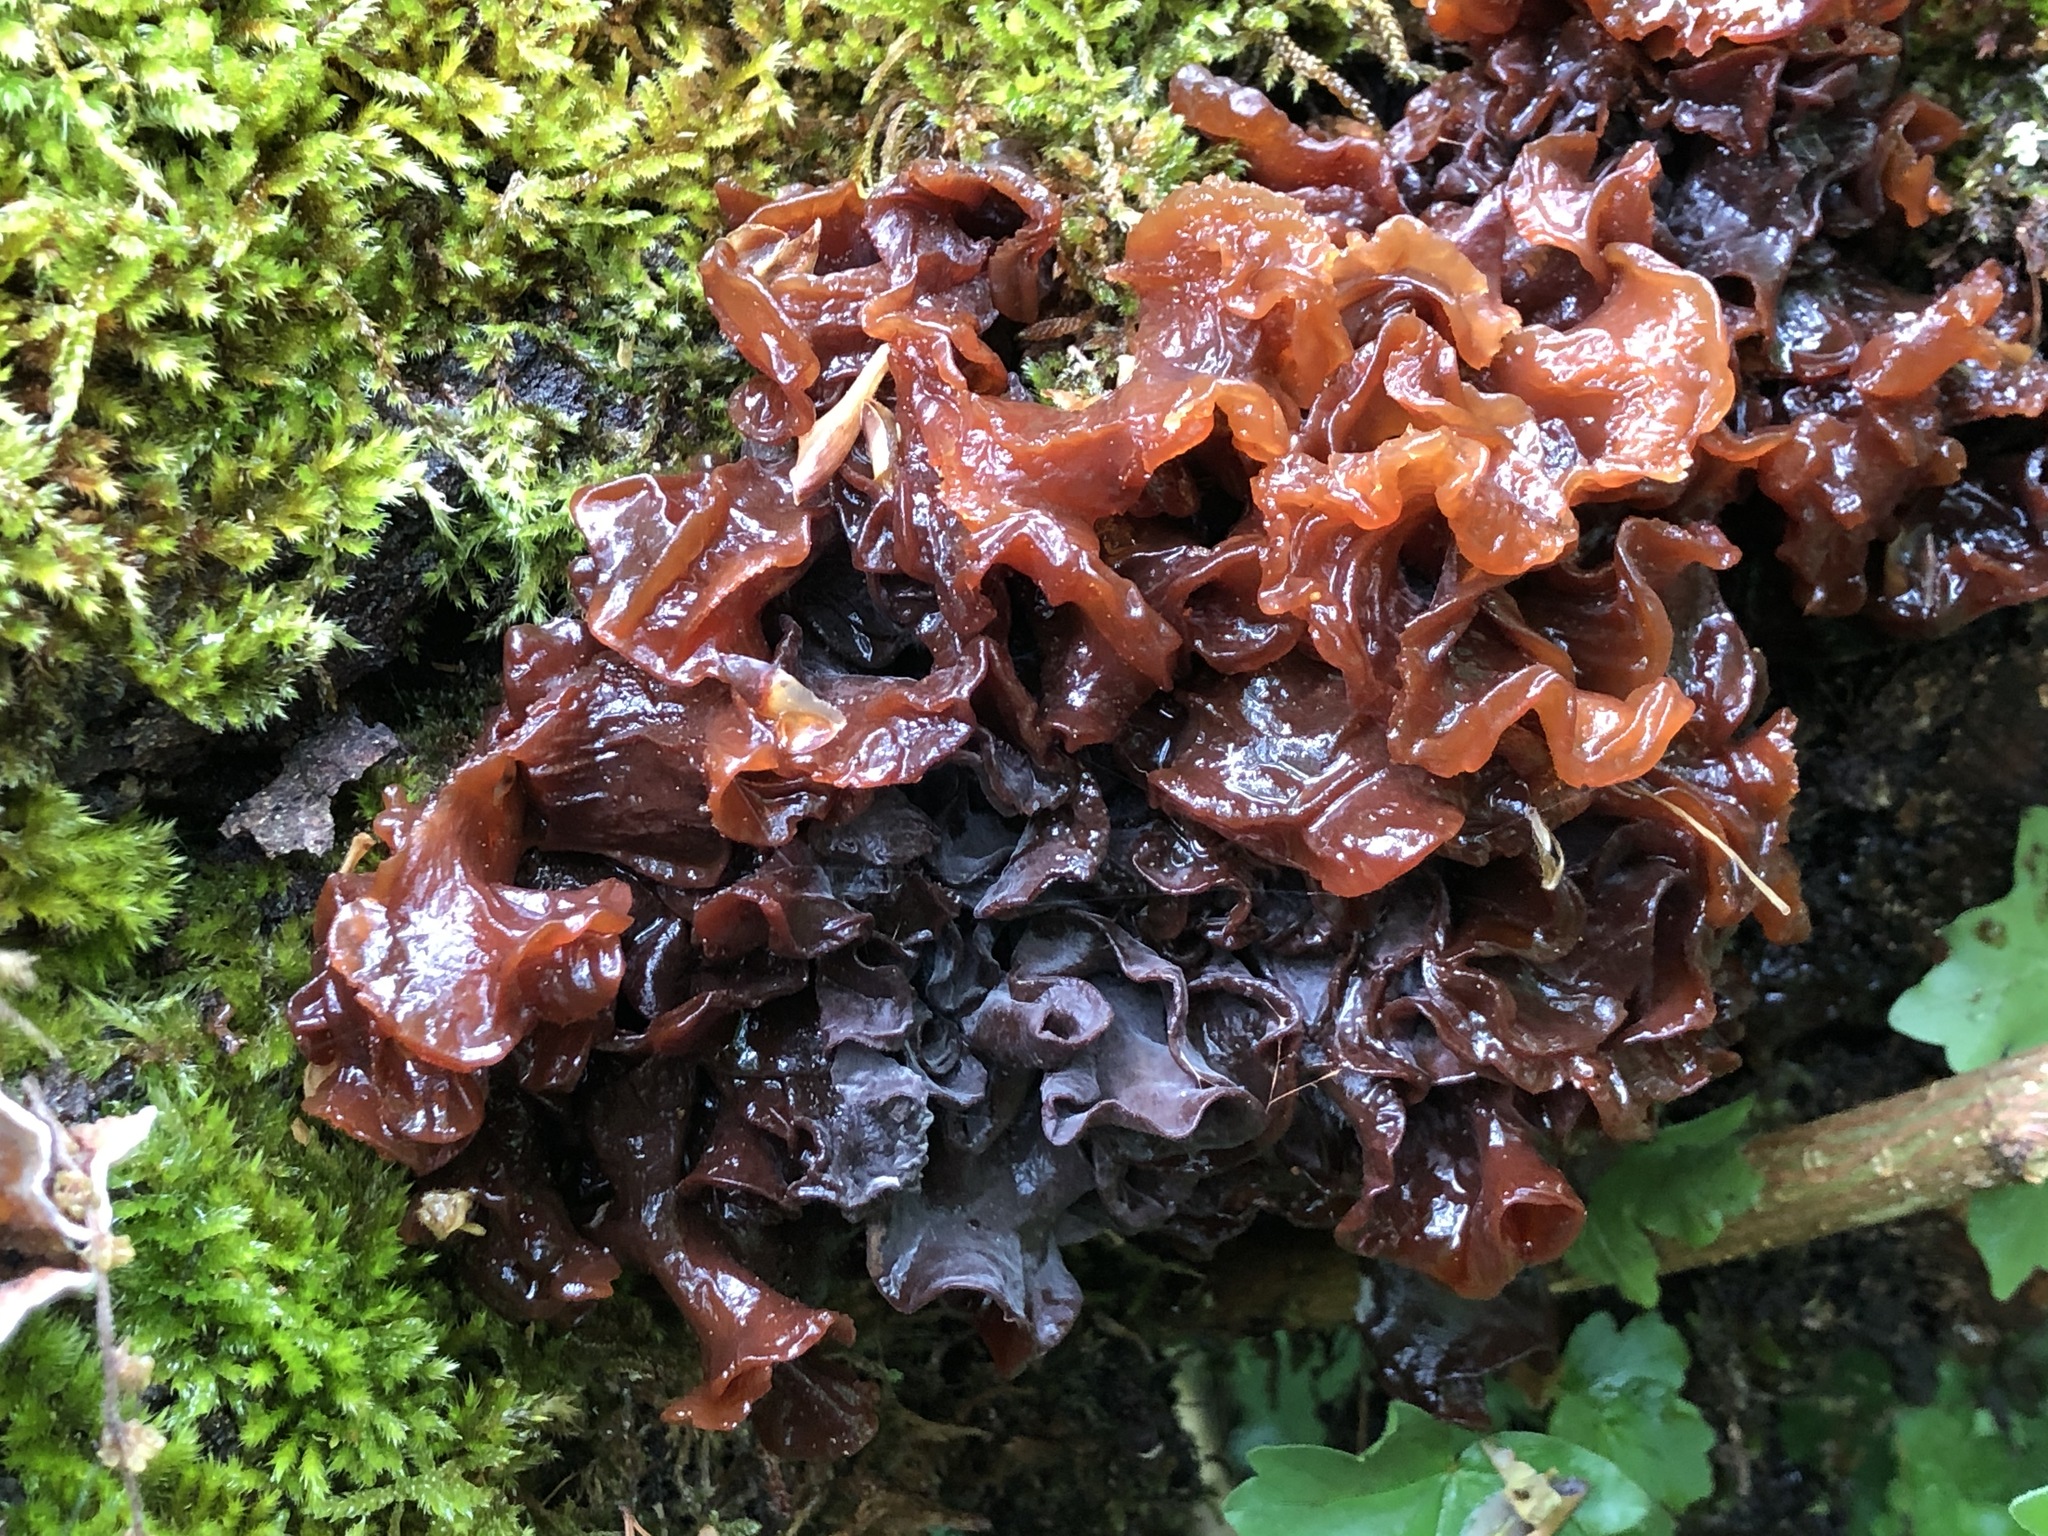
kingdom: Fungi
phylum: Basidiomycota
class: Tremellomycetes
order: Tremellales
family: Tremellaceae
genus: Phaeotremella
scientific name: Phaeotremella frondosa
